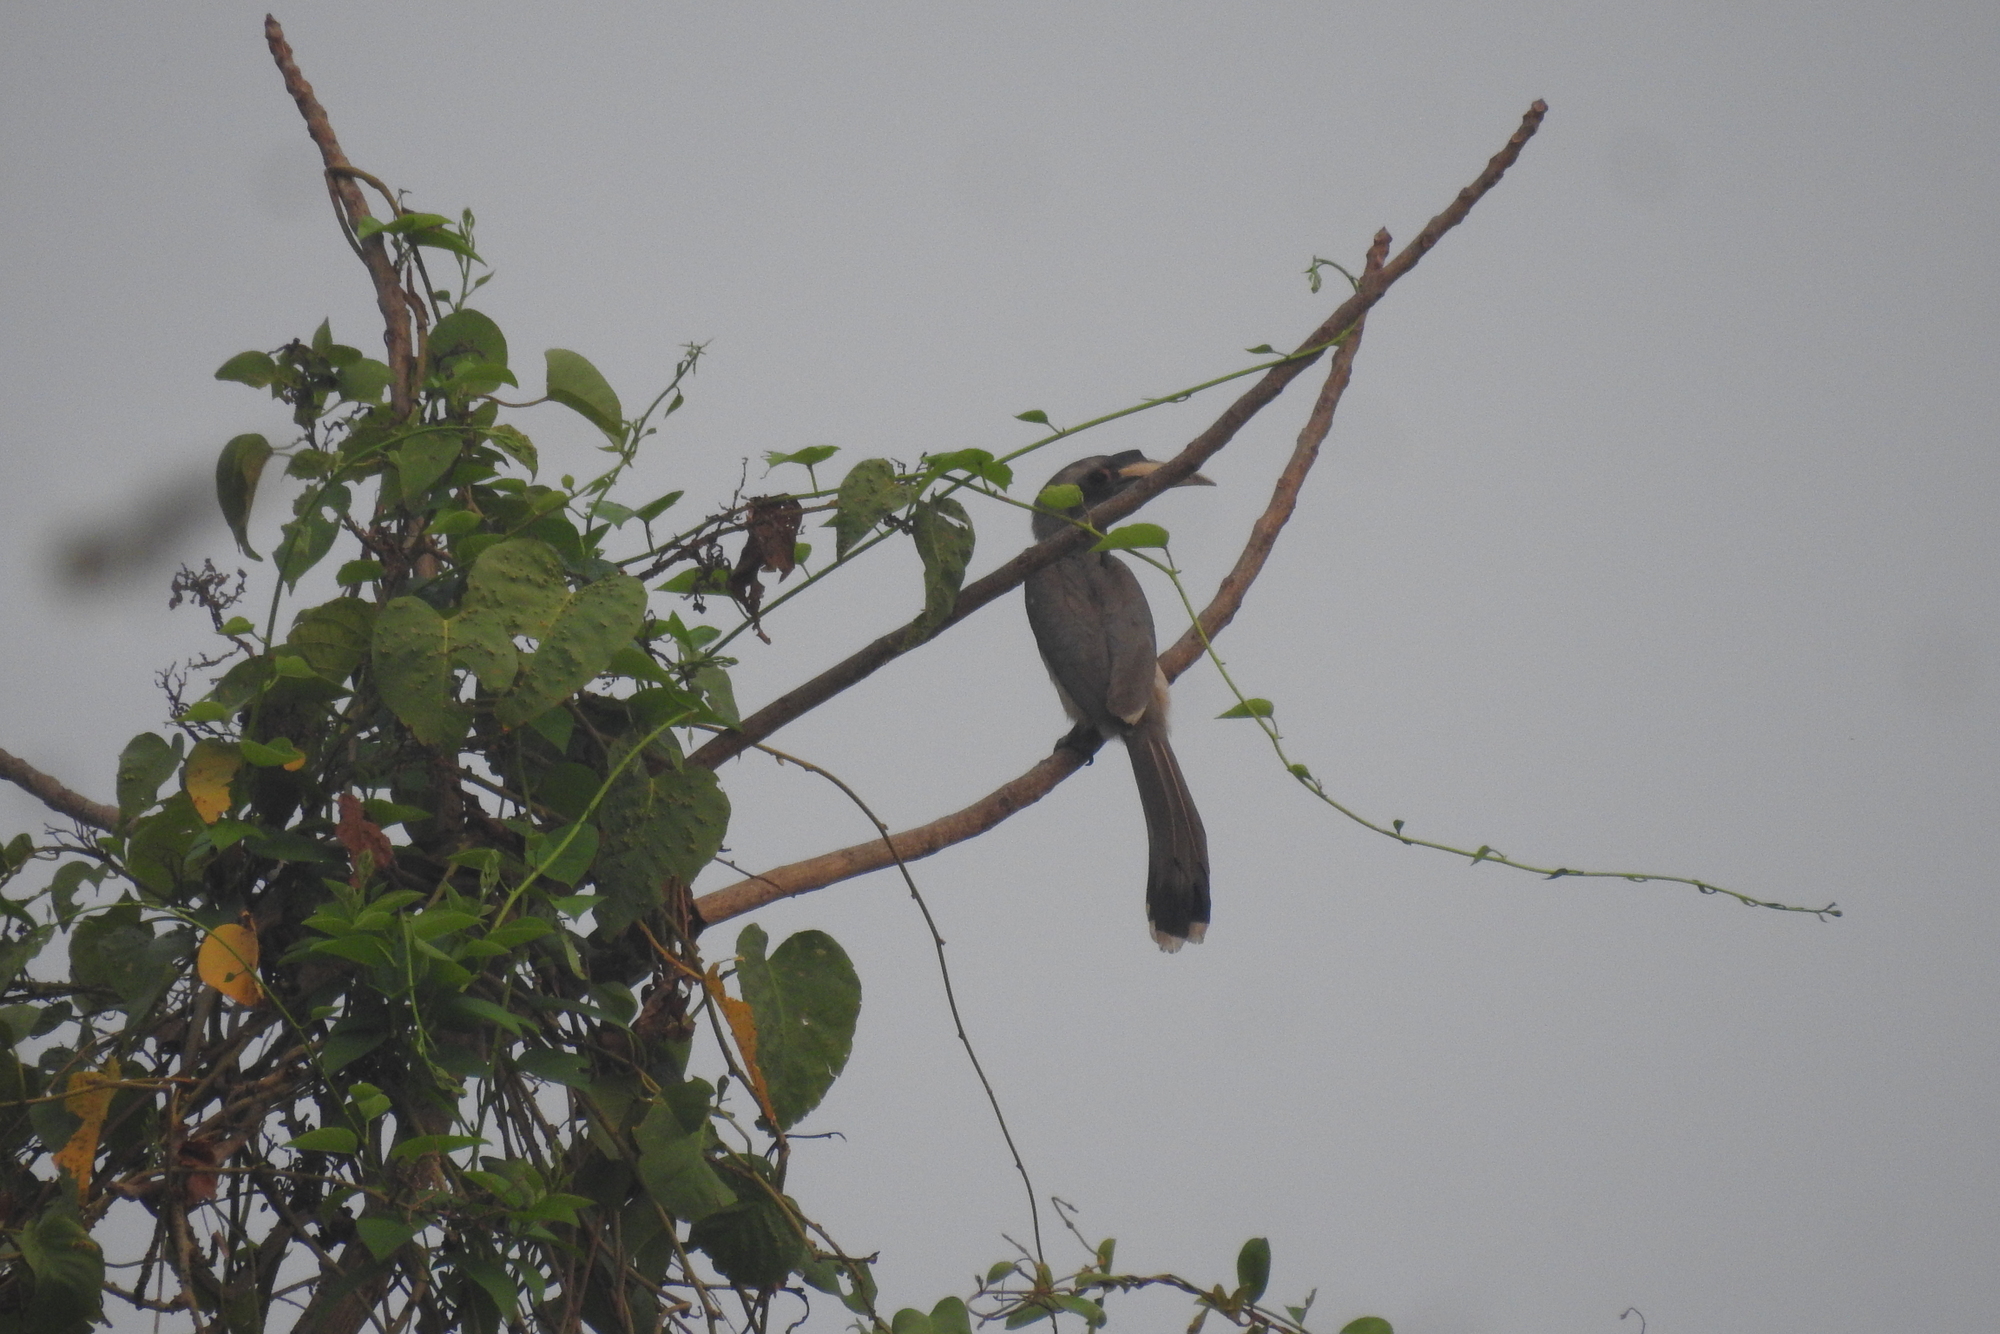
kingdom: Animalia
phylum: Chordata
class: Aves
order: Bucerotiformes
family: Bucerotidae
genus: Ocyceros
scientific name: Ocyceros birostris
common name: Indian grey hornbill
